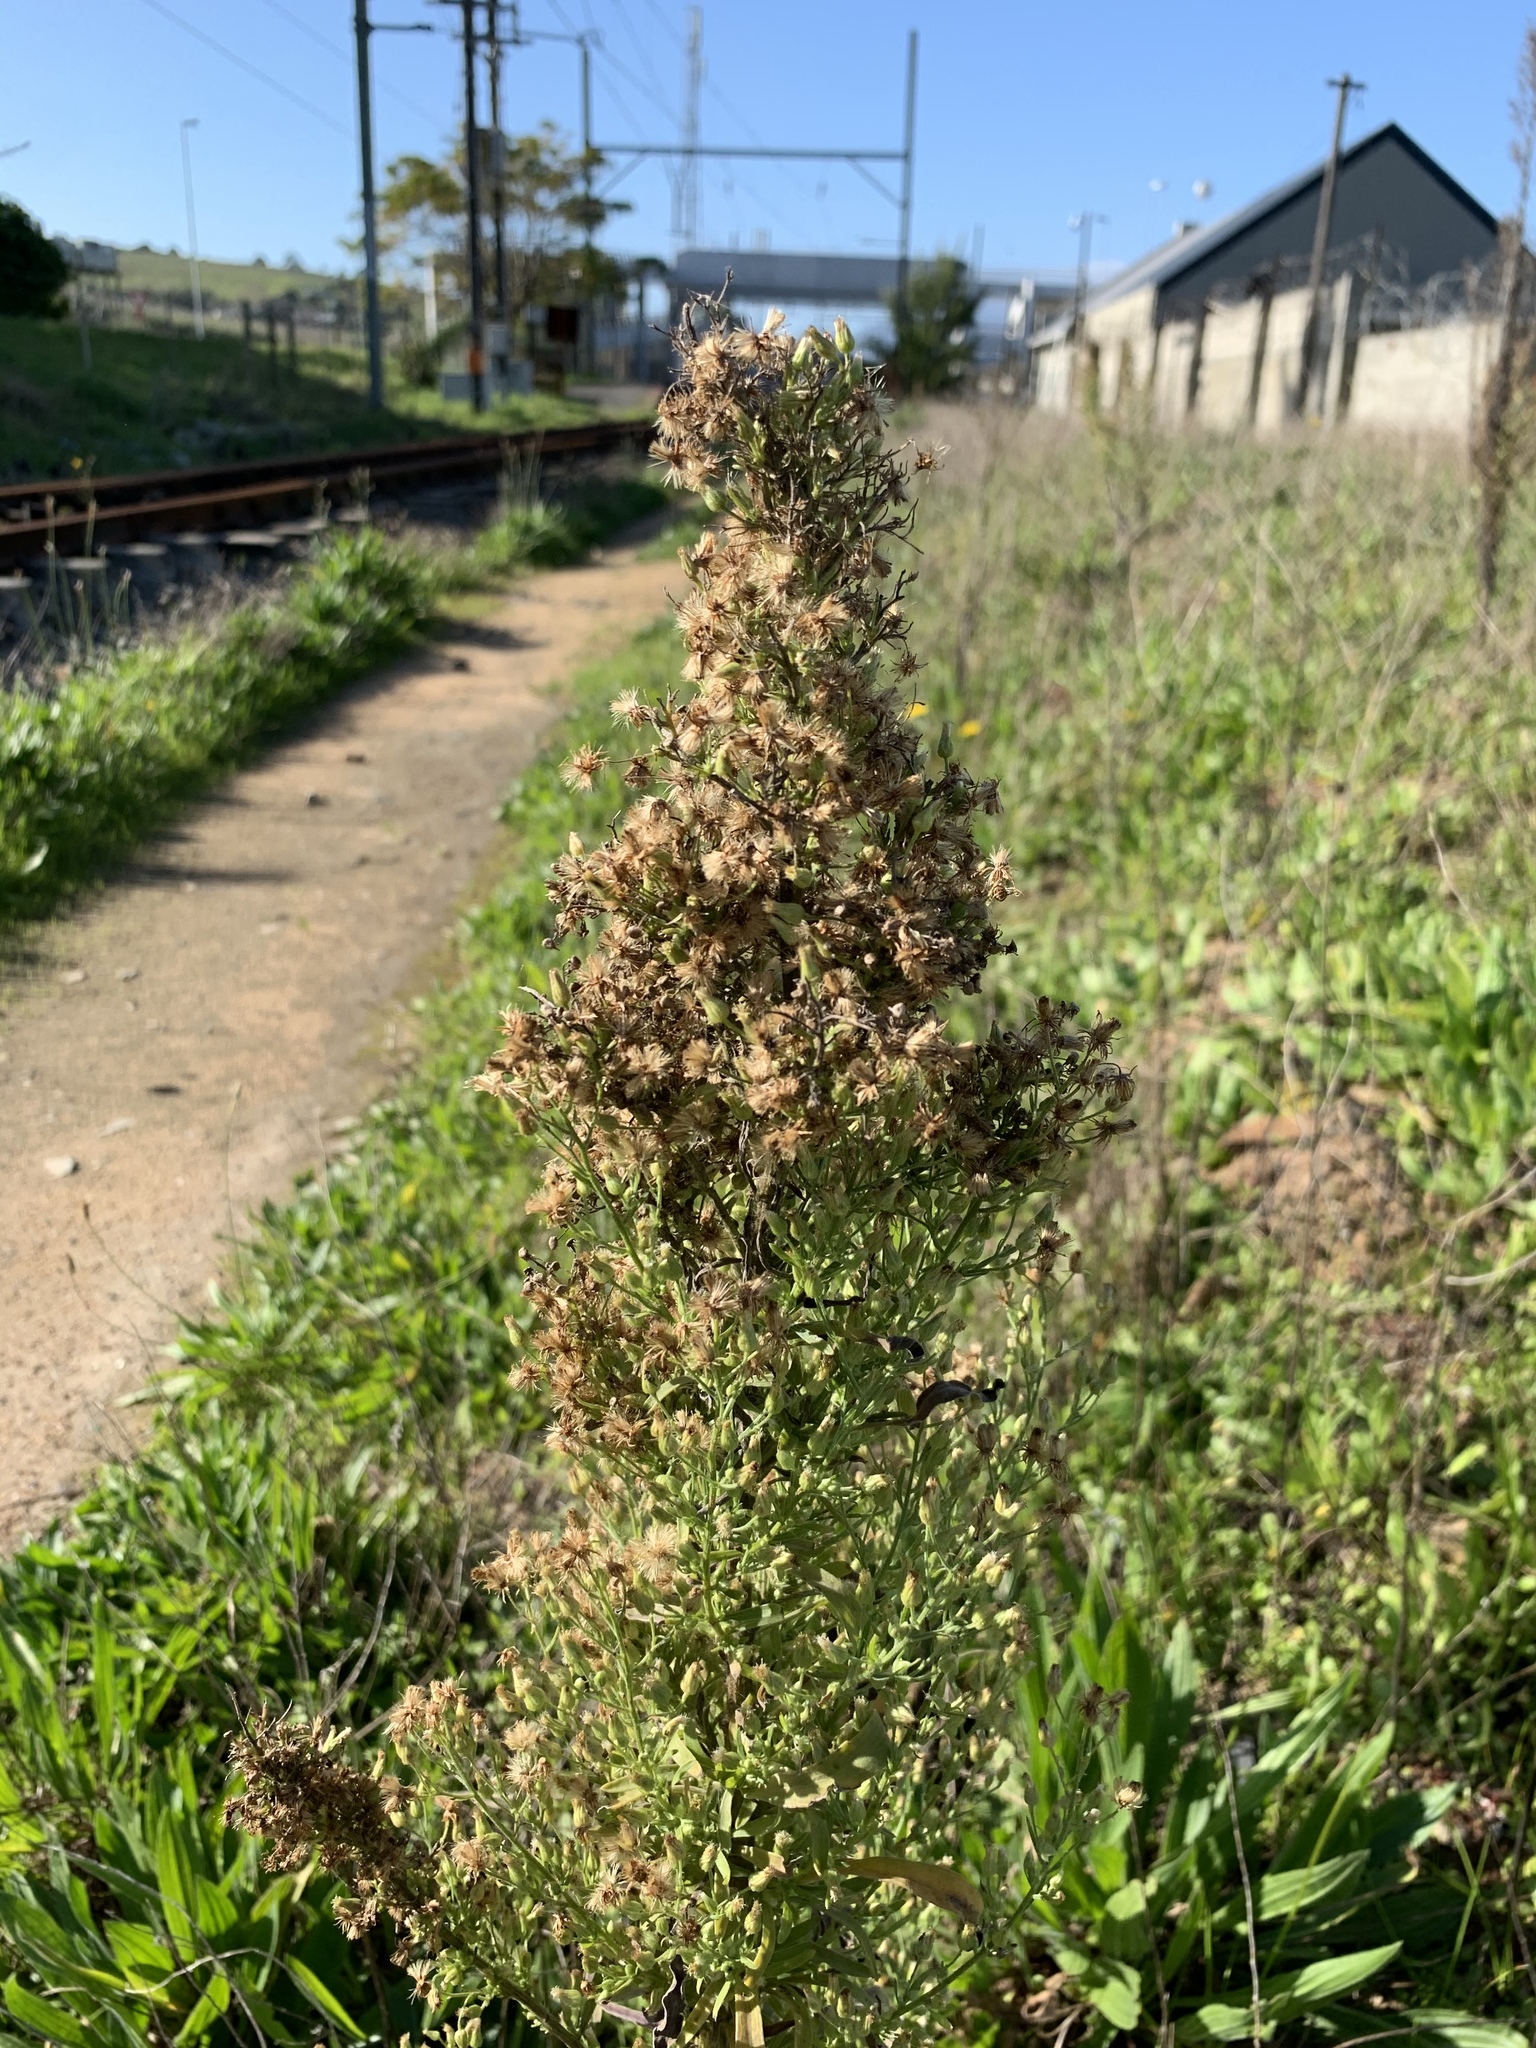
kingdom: Plantae
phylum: Tracheophyta
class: Magnoliopsida
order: Asterales
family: Asteraceae
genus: Erigeron
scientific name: Erigeron sumatrensis
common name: Daisy
